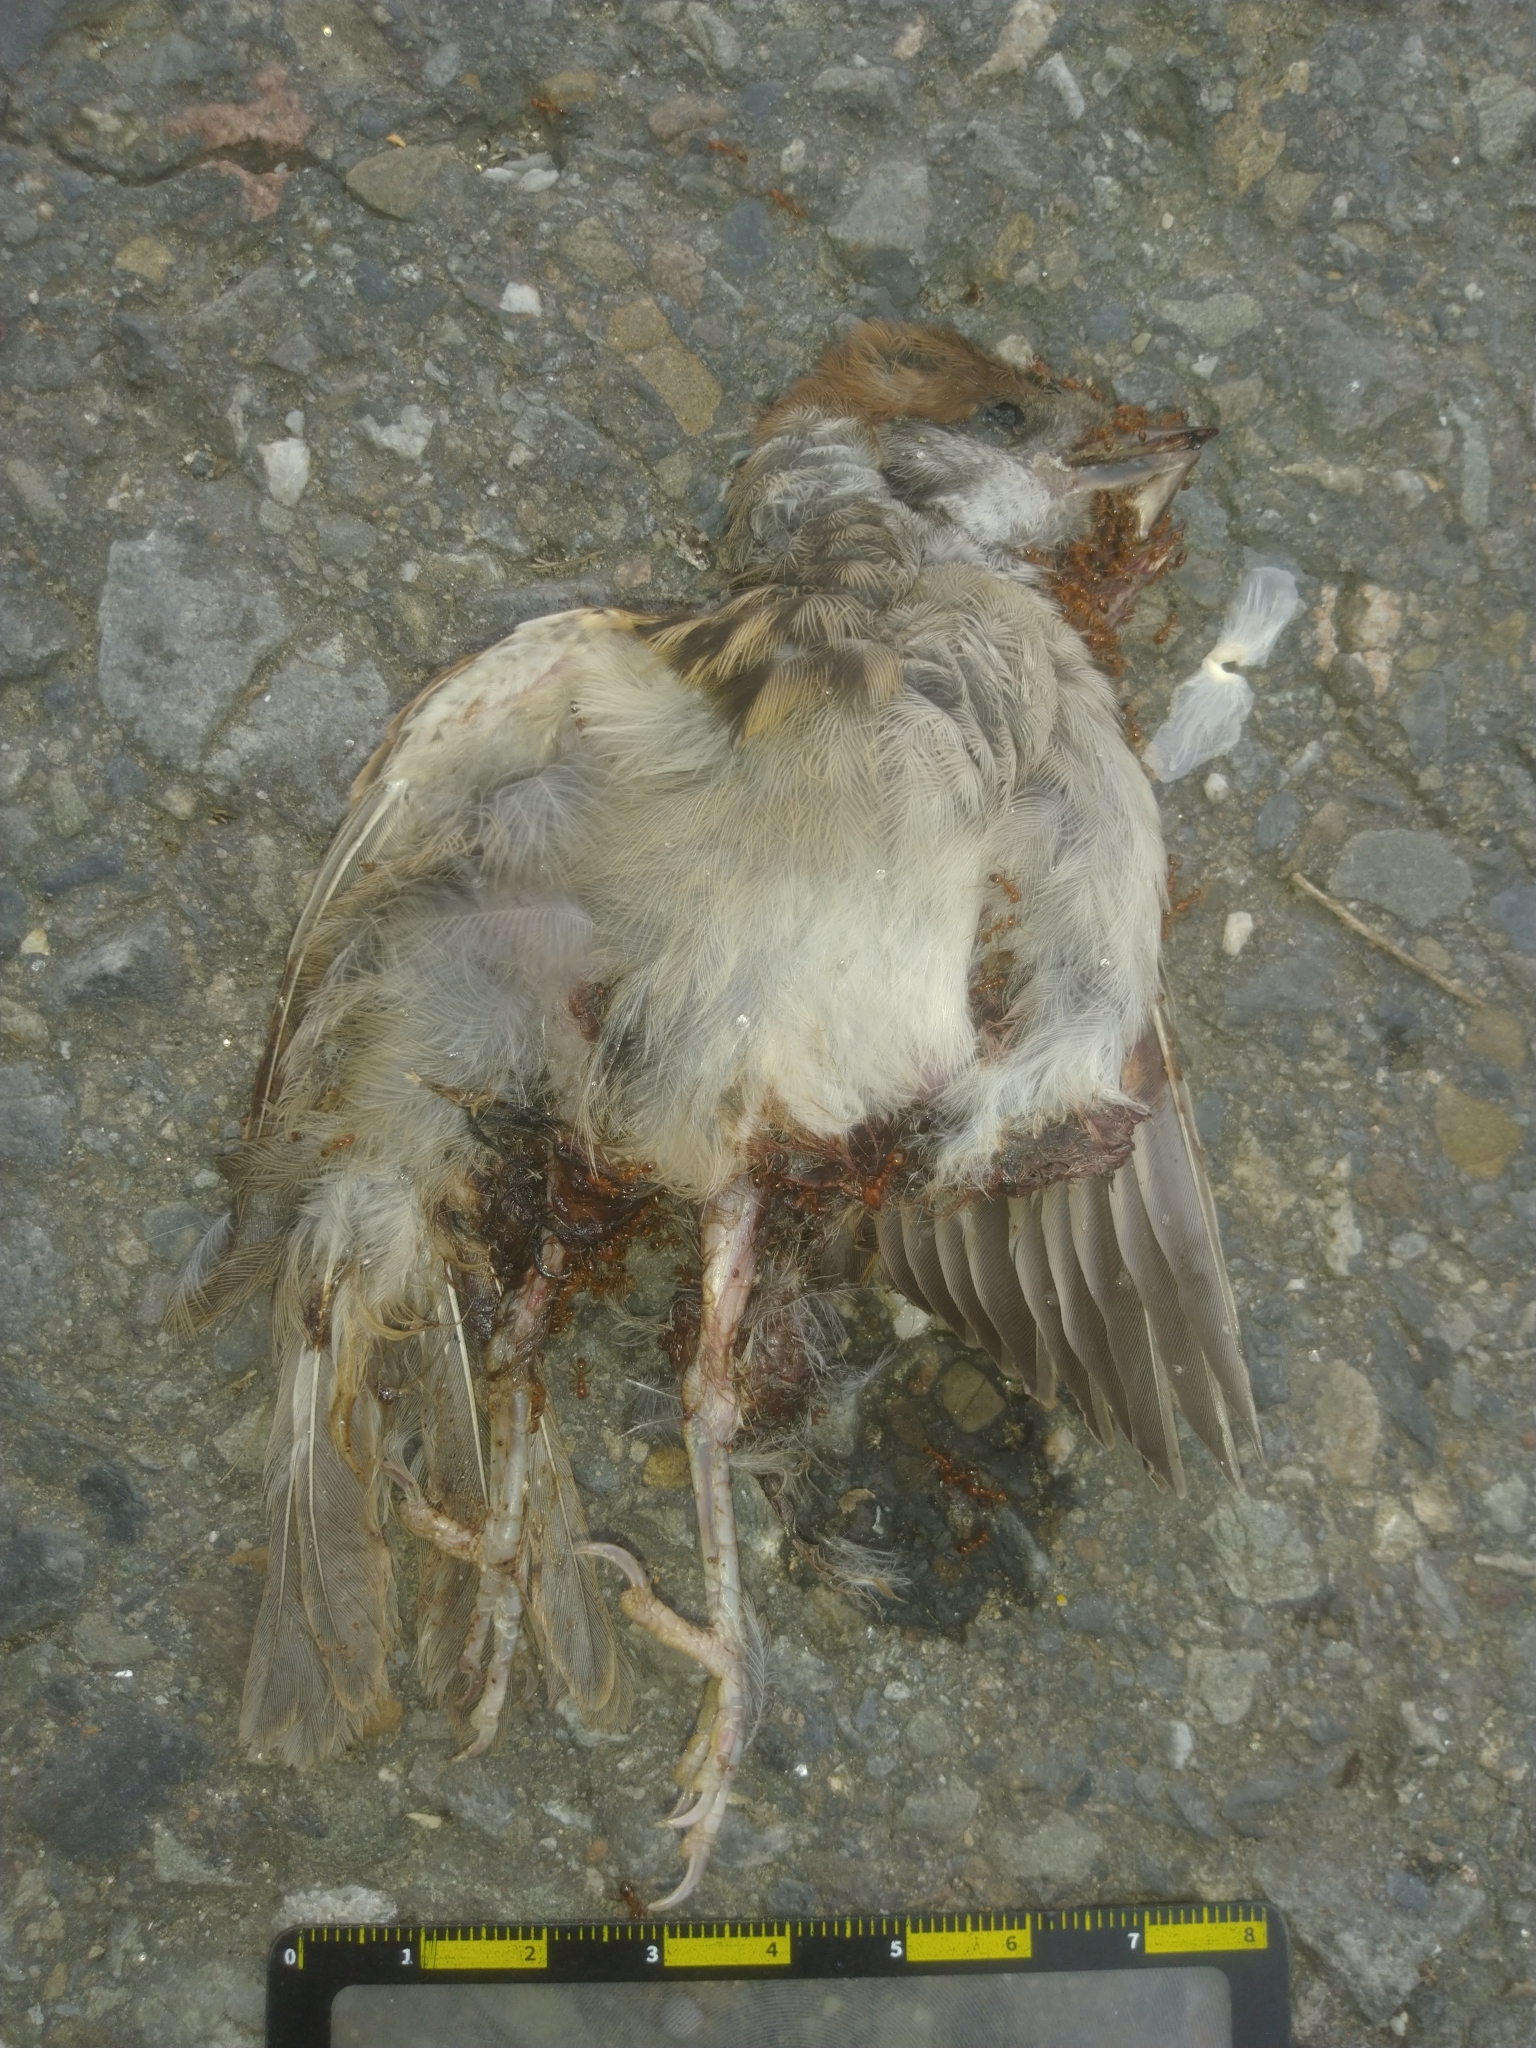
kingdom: Animalia
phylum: Chordata
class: Aves
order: Passeriformes
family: Passeridae
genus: Passer
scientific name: Passer montanus
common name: Eurasian tree sparrow
